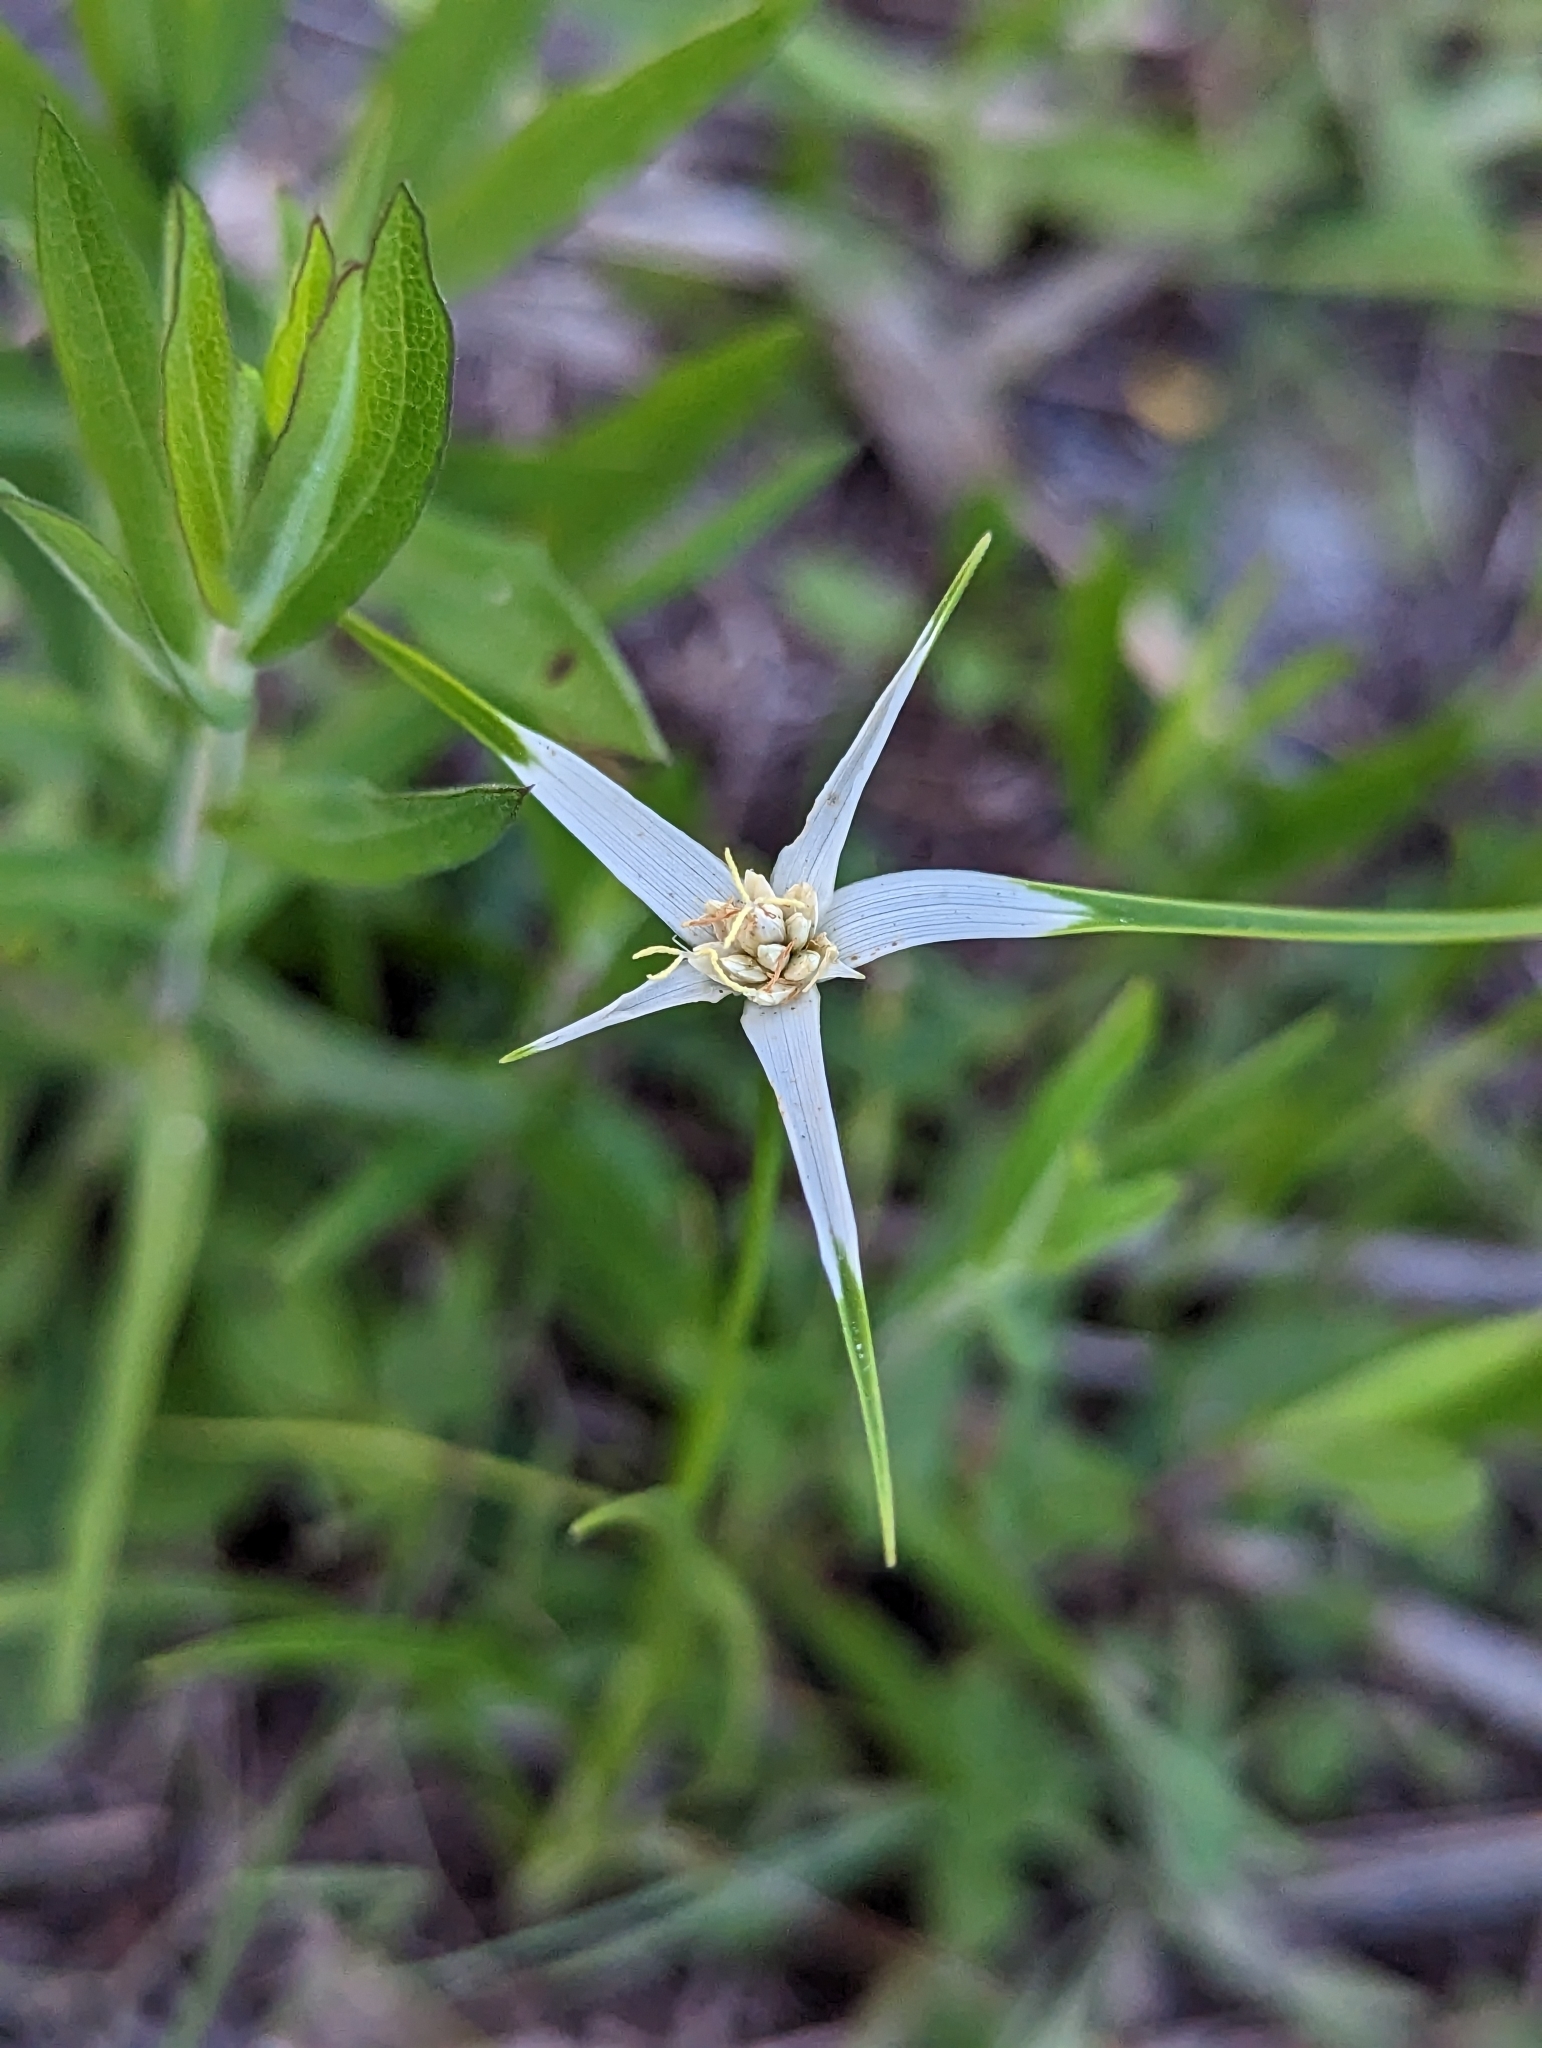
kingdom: Plantae
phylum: Tracheophyta
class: Liliopsida
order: Poales
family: Cyperaceae
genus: Rhynchospora
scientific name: Rhynchospora colorata
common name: Star sedge
